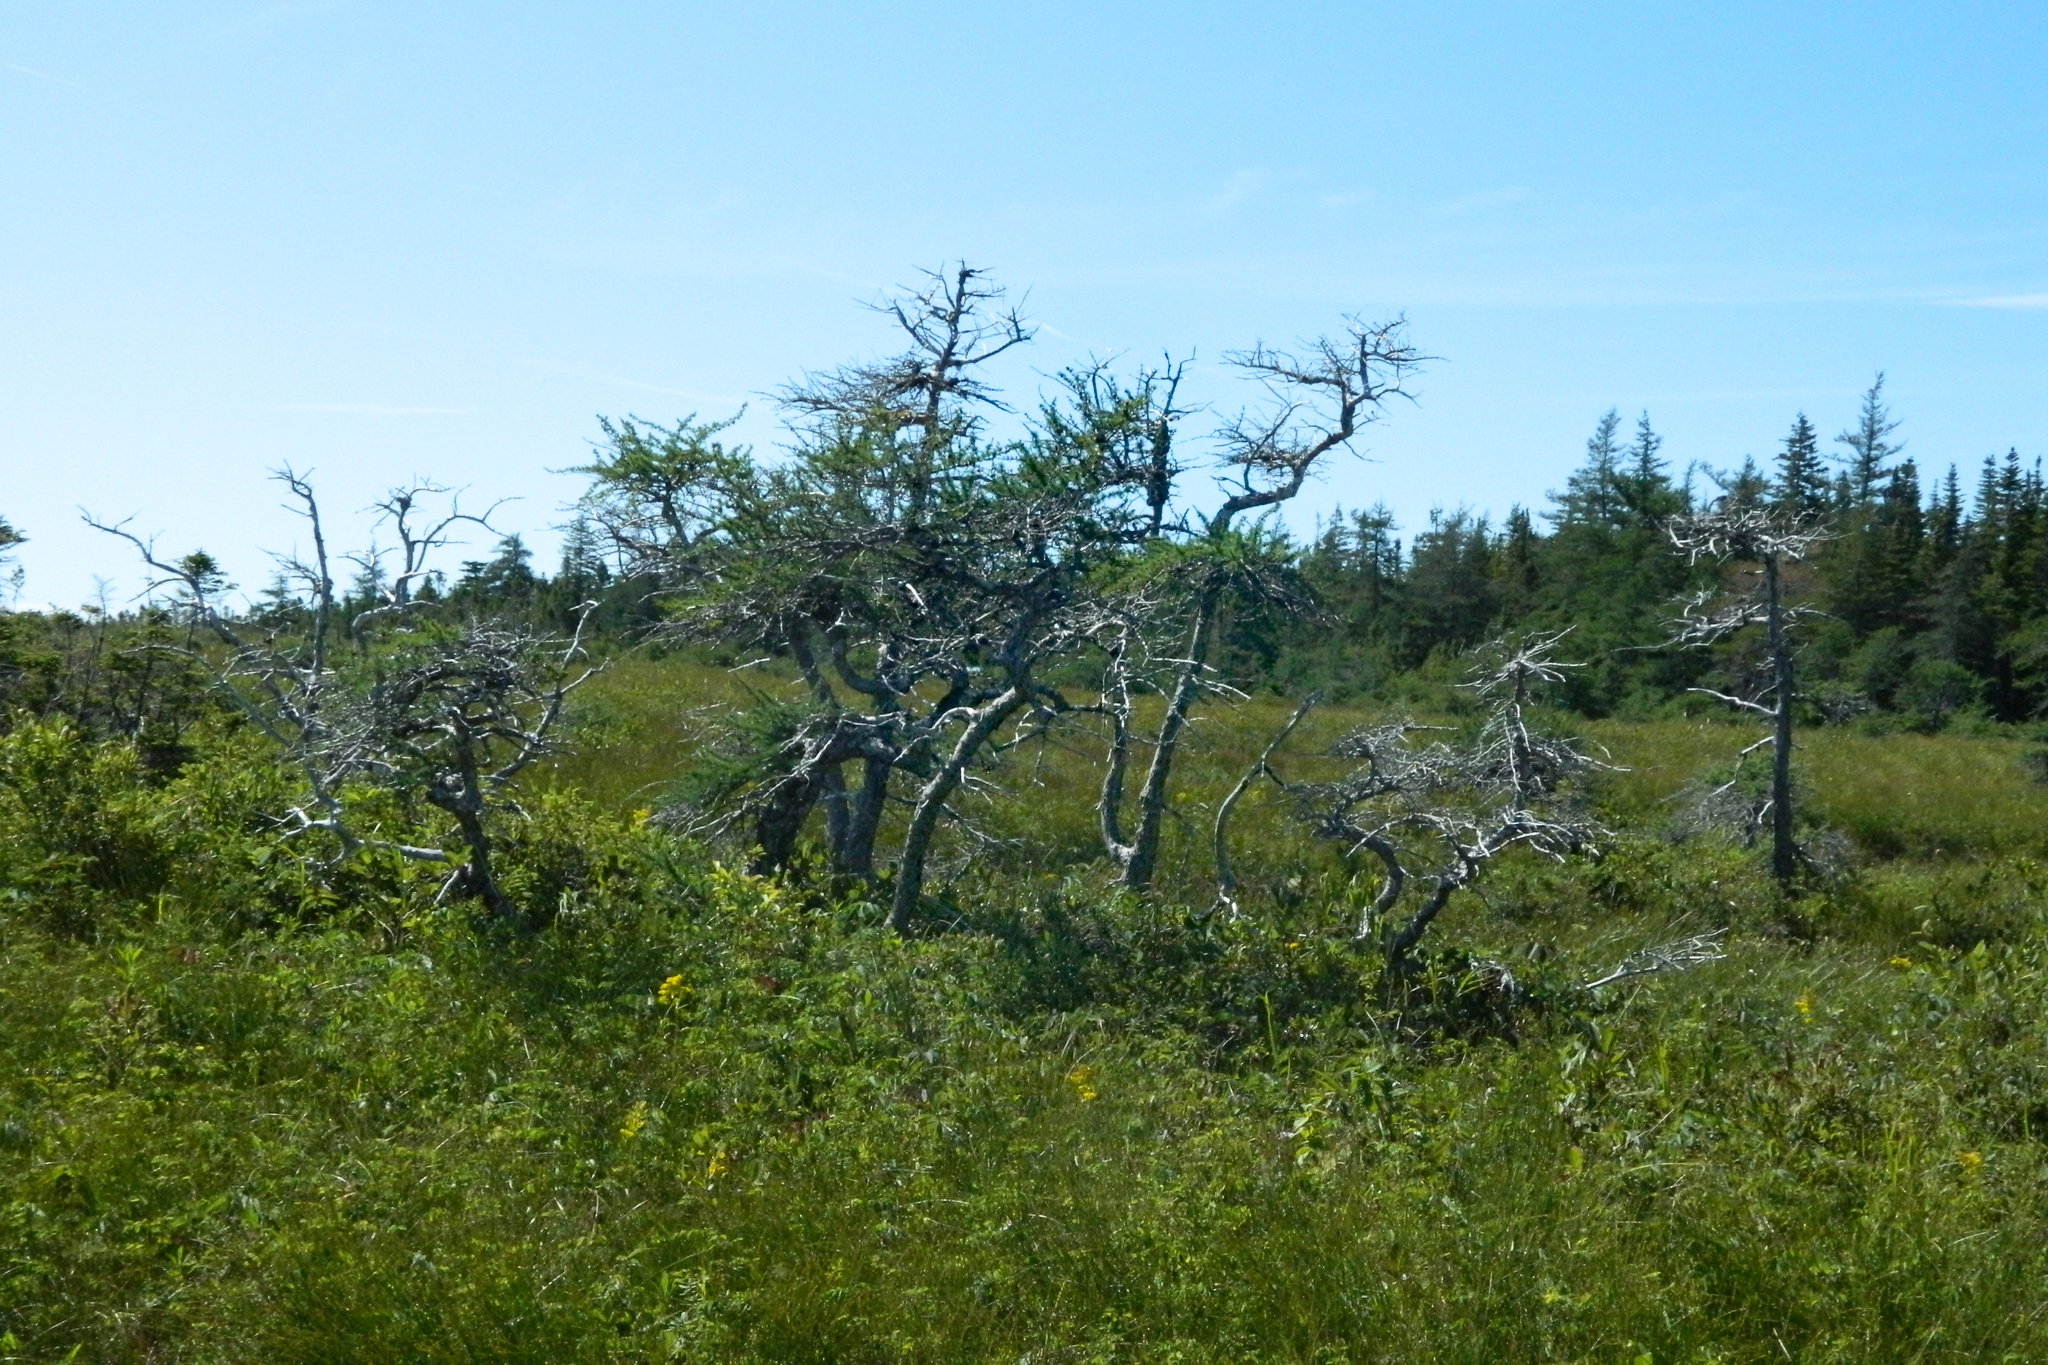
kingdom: Plantae
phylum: Tracheophyta
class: Pinopsida
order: Pinales
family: Pinaceae
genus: Larix
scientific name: Larix laricina
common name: American larch
